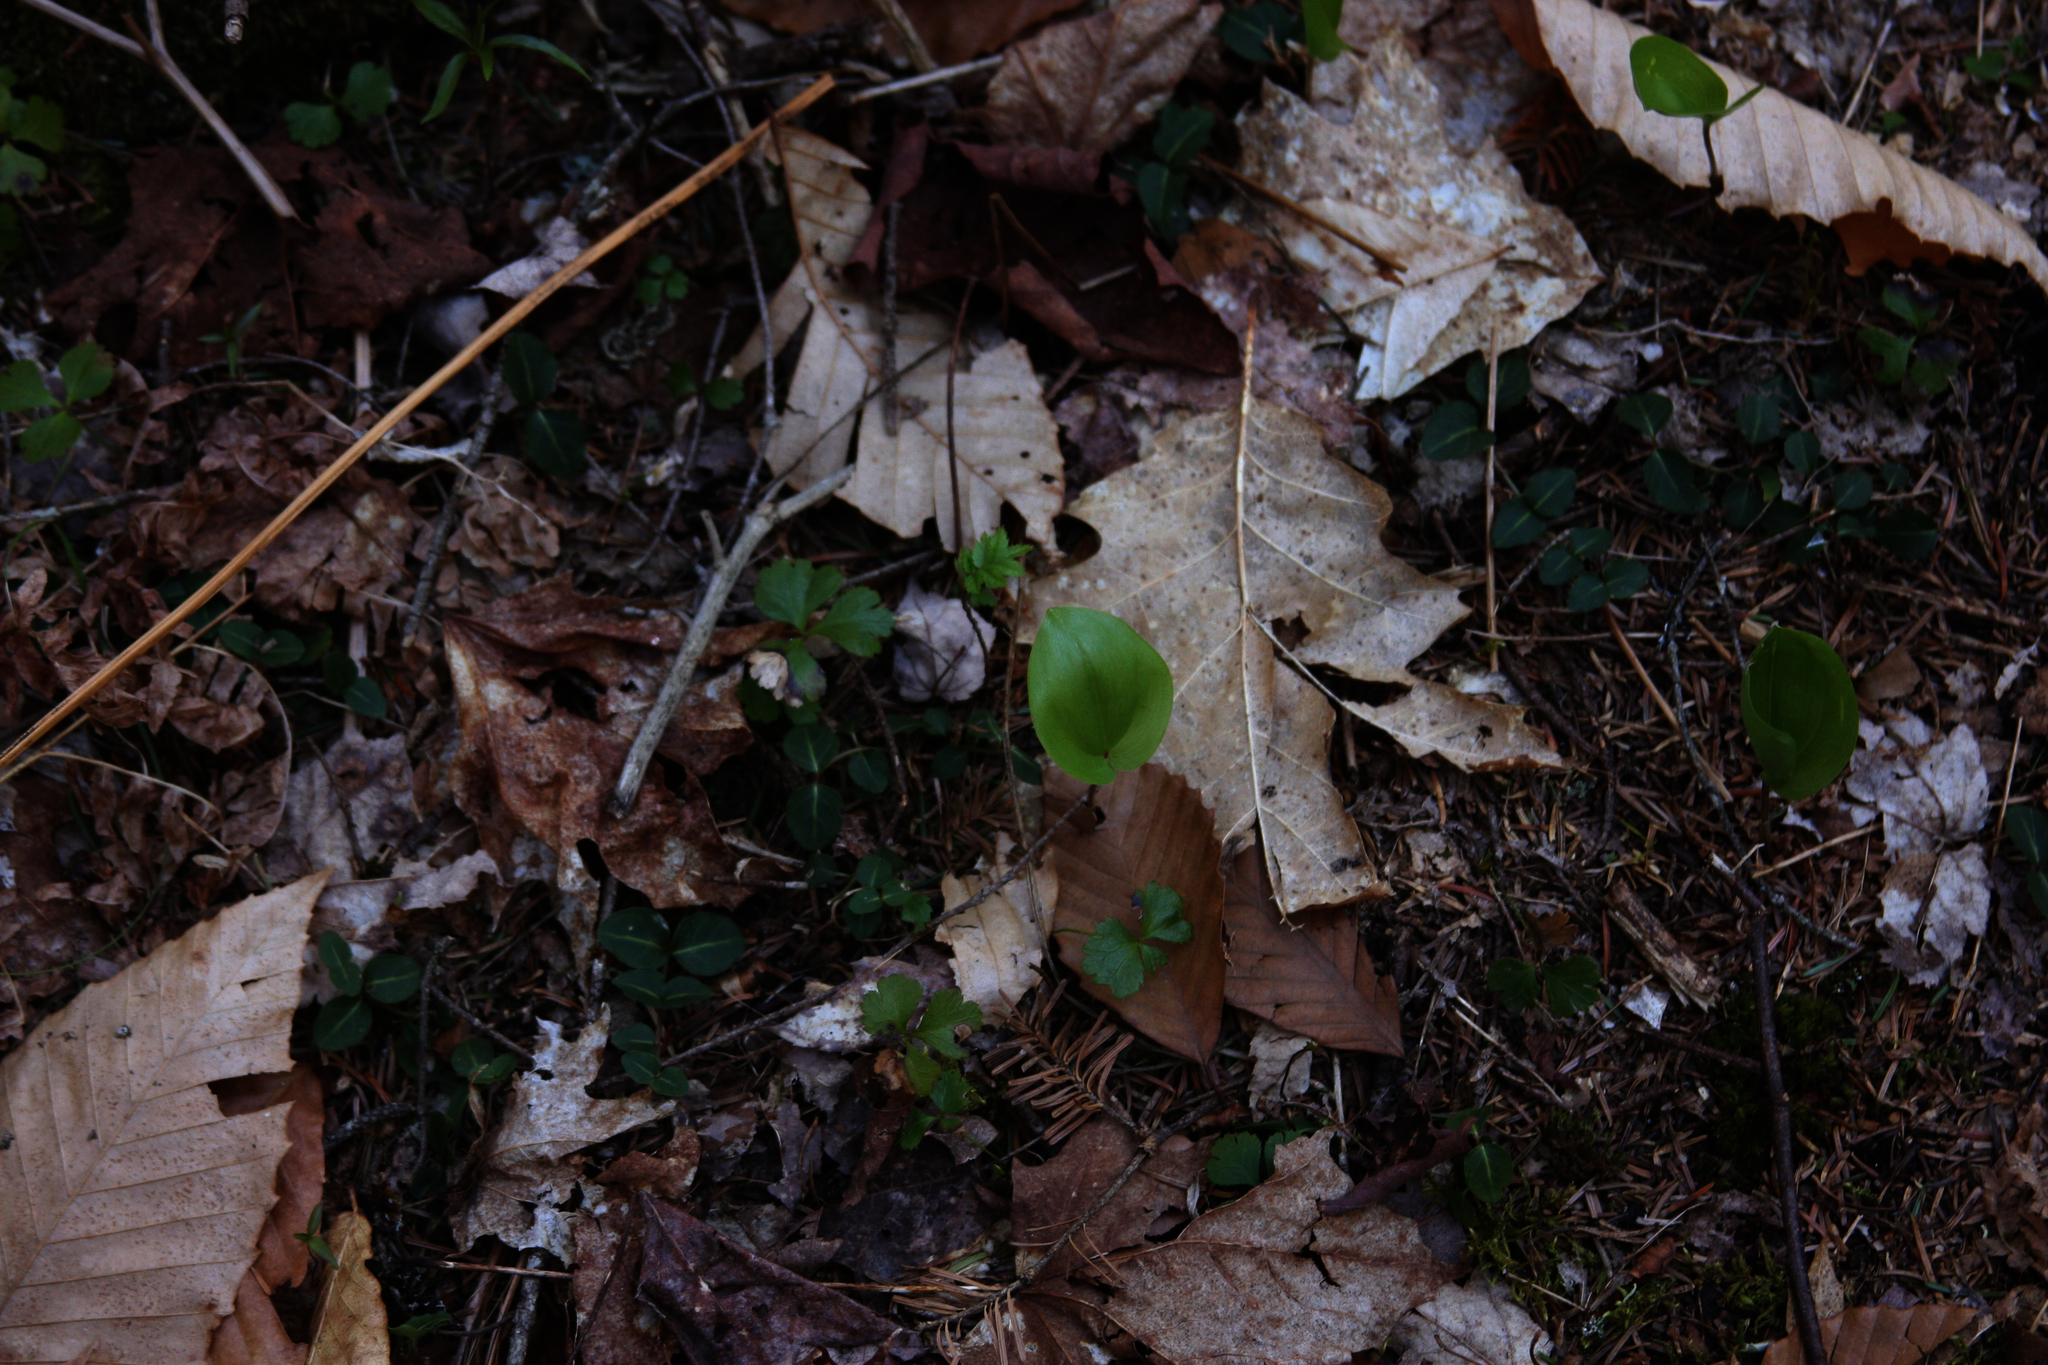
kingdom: Plantae
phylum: Tracheophyta
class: Magnoliopsida
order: Ranunculales
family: Ranunculaceae
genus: Coptis
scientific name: Coptis trifolia
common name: Canker-root
